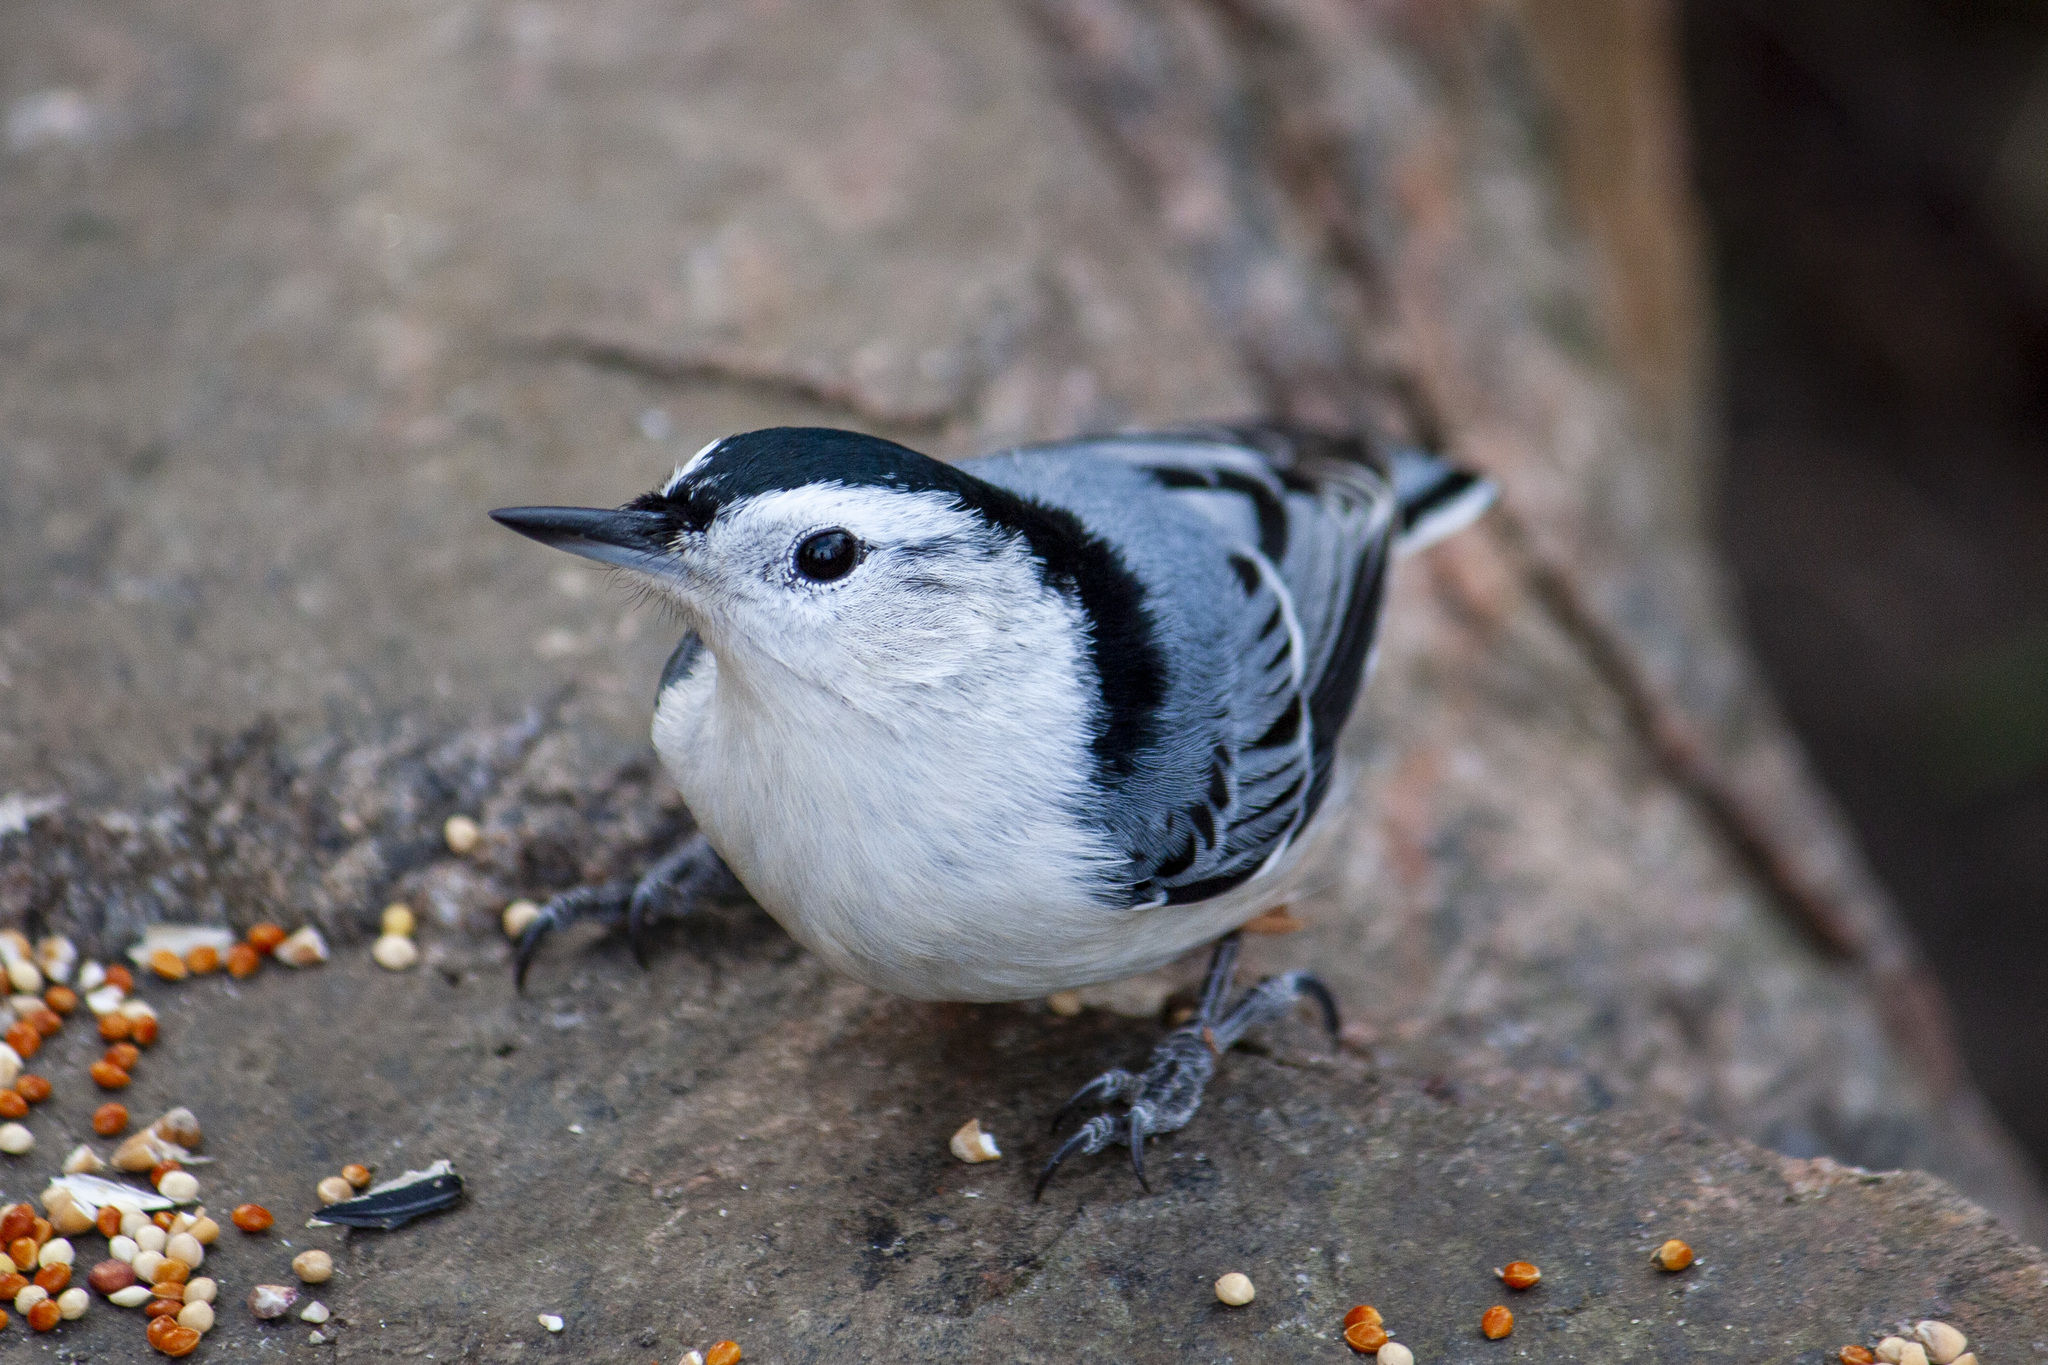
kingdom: Animalia
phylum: Chordata
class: Aves
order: Passeriformes
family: Sittidae
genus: Sitta
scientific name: Sitta carolinensis
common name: White-breasted nuthatch
